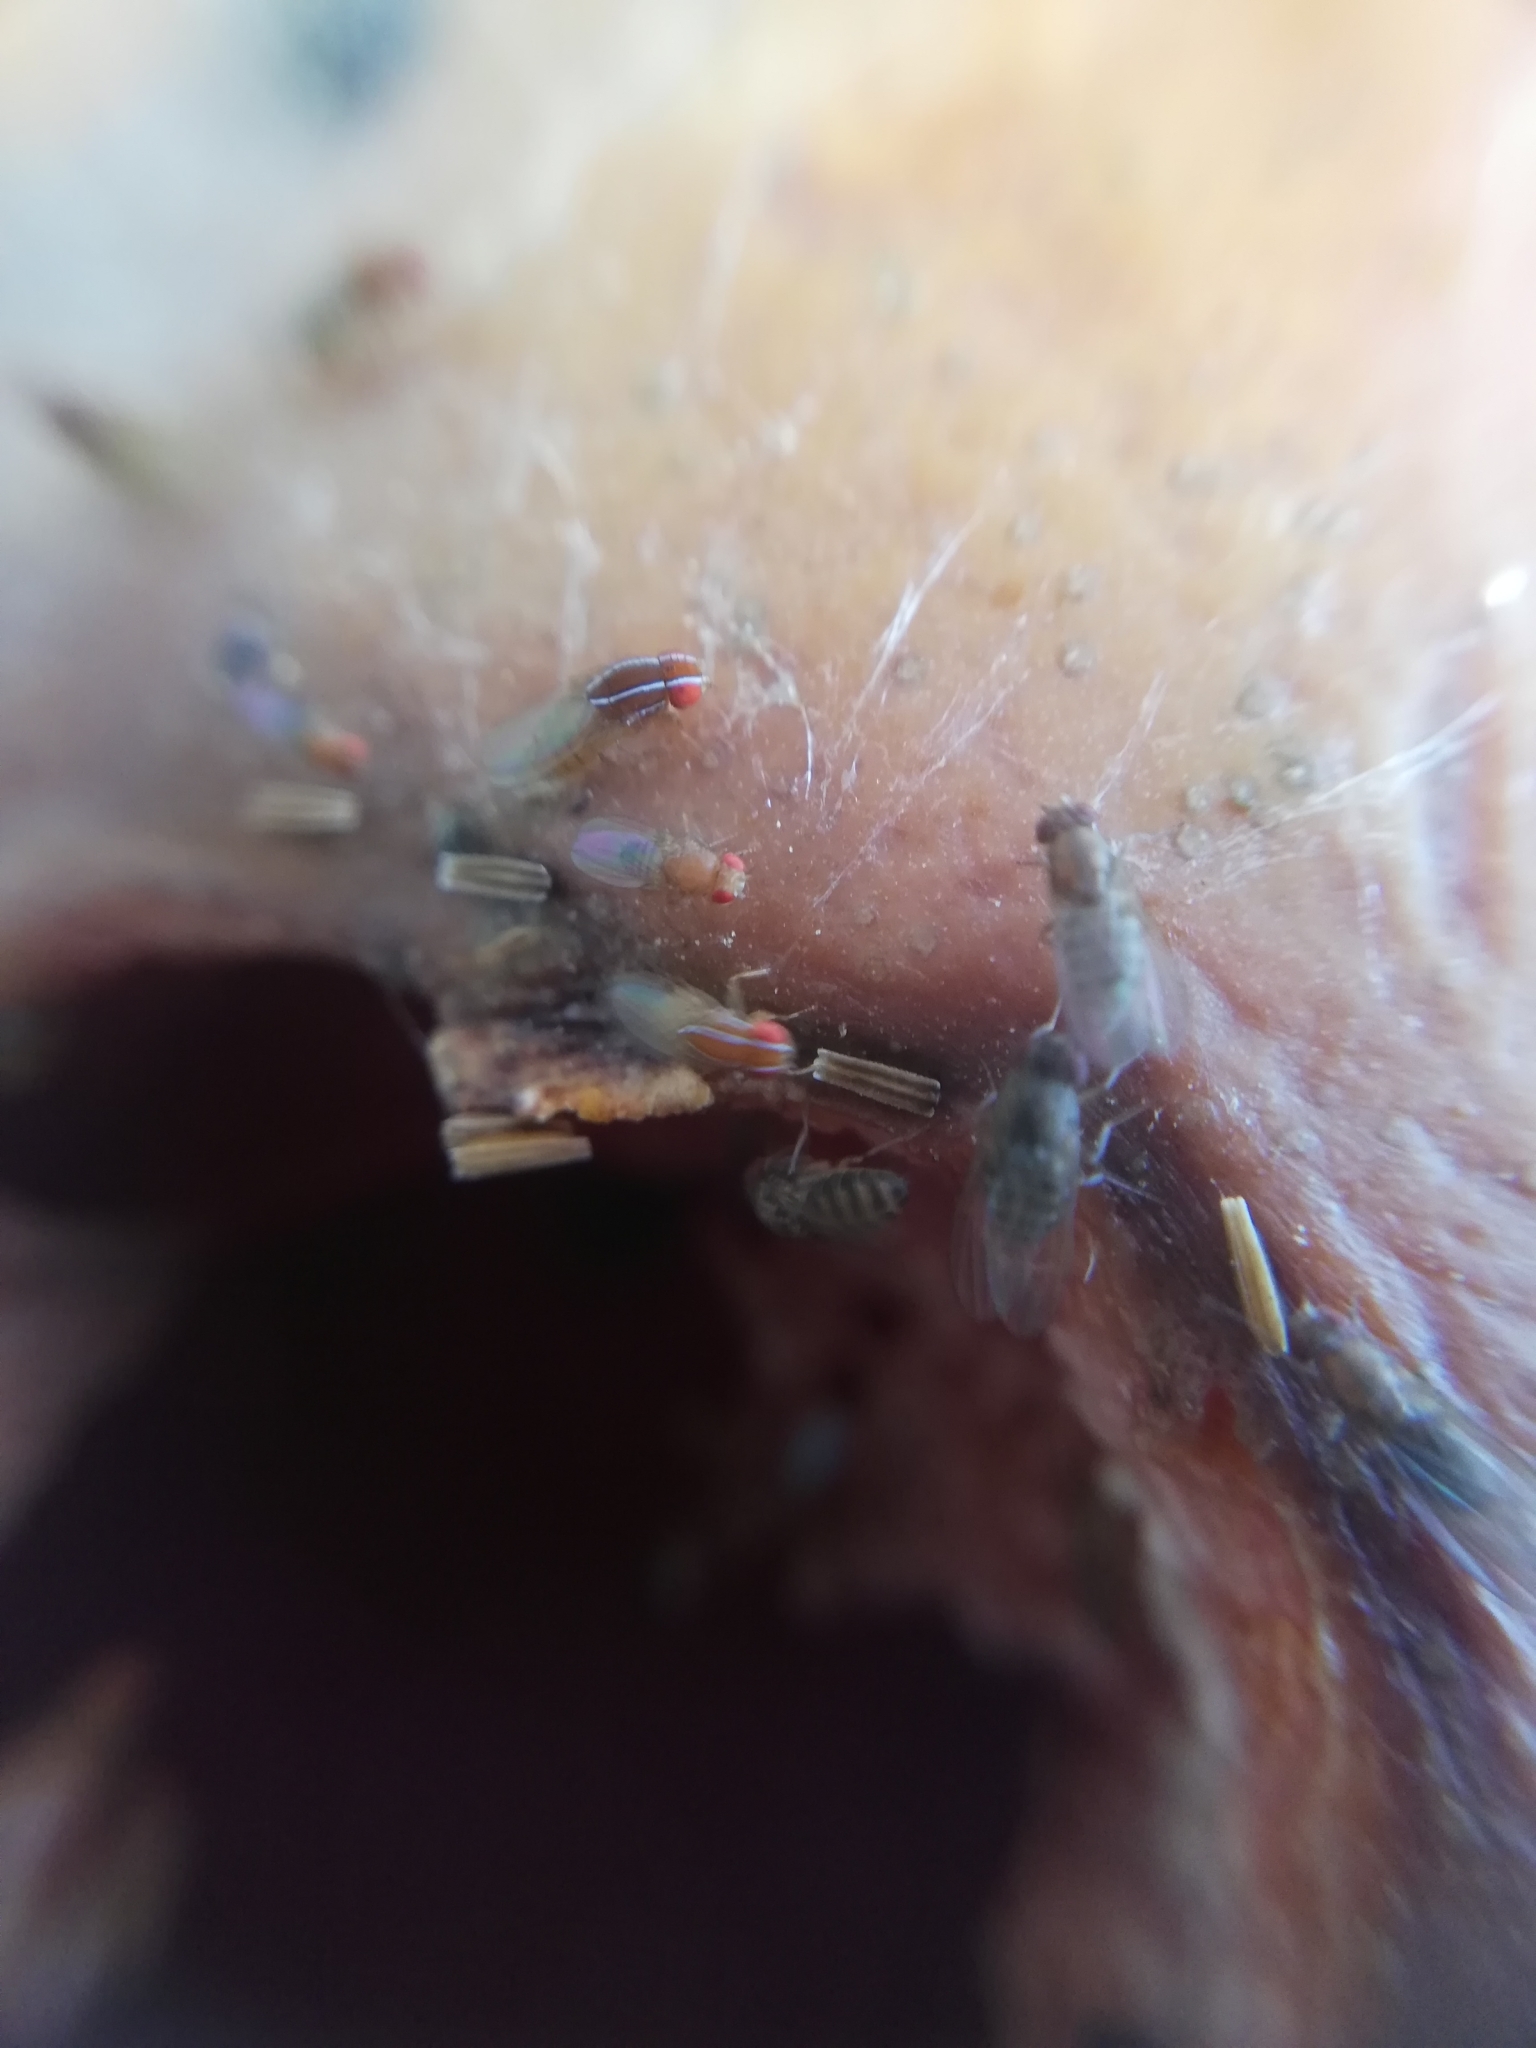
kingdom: Animalia
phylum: Arthropoda
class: Insecta
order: Diptera
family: Drosophilidae
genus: Zaprionus
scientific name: Zaprionus indianus
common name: African fig fly
